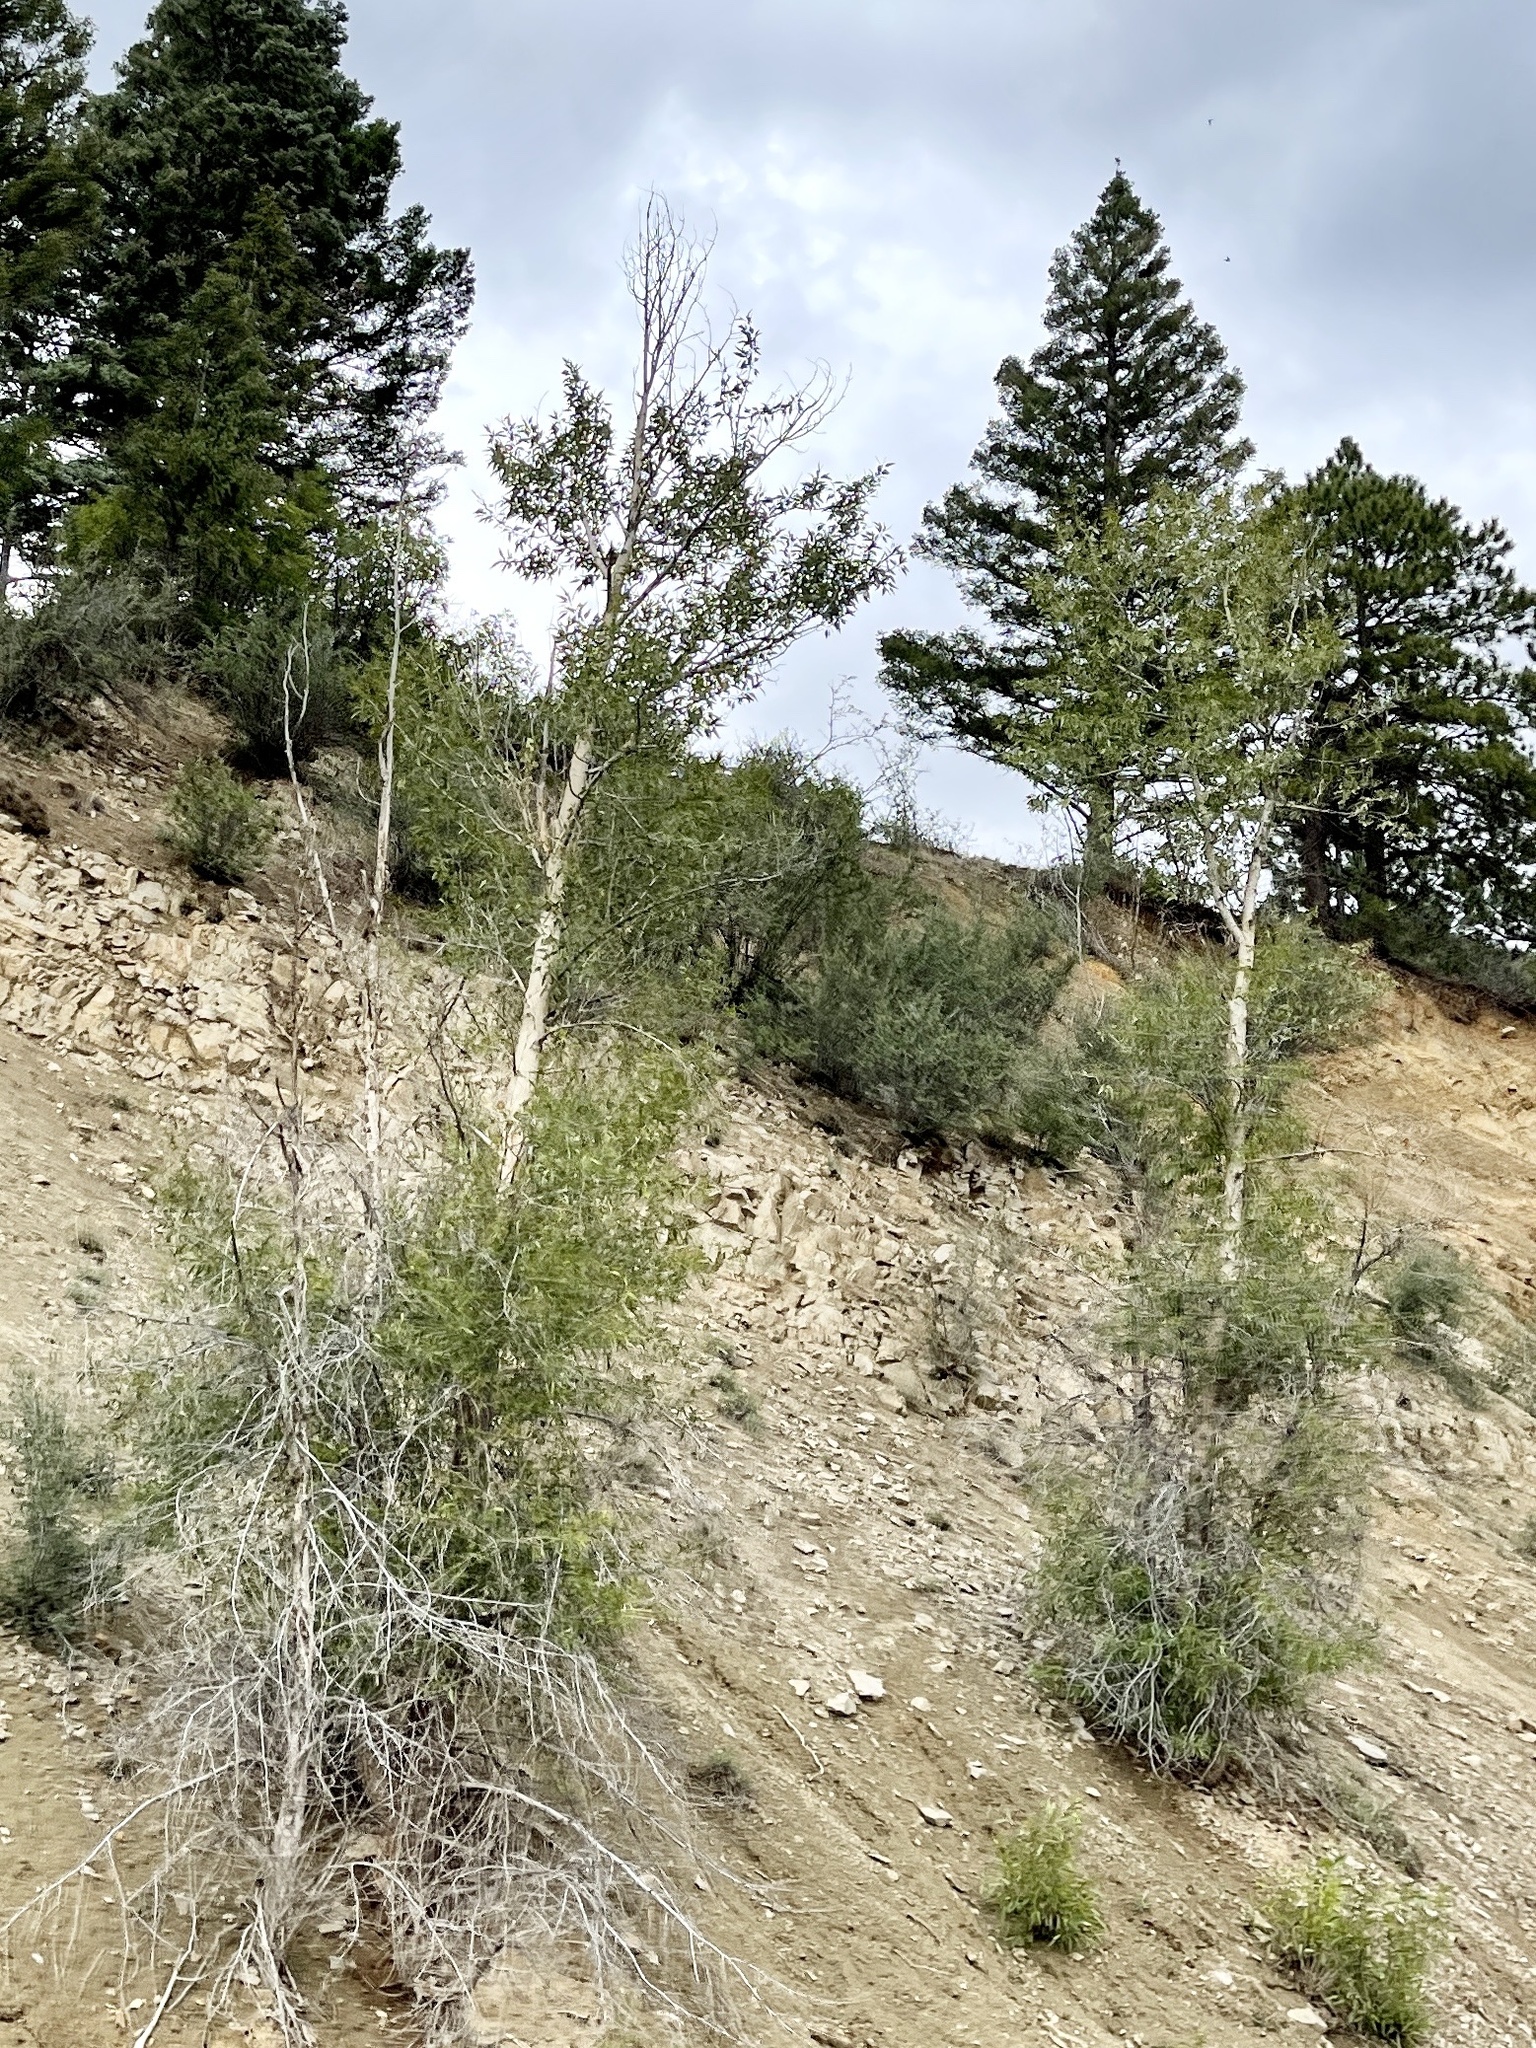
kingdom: Plantae
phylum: Tracheophyta
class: Magnoliopsida
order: Malpighiales
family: Salicaceae
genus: Populus
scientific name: Populus tremuloides
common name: Quaking aspen
